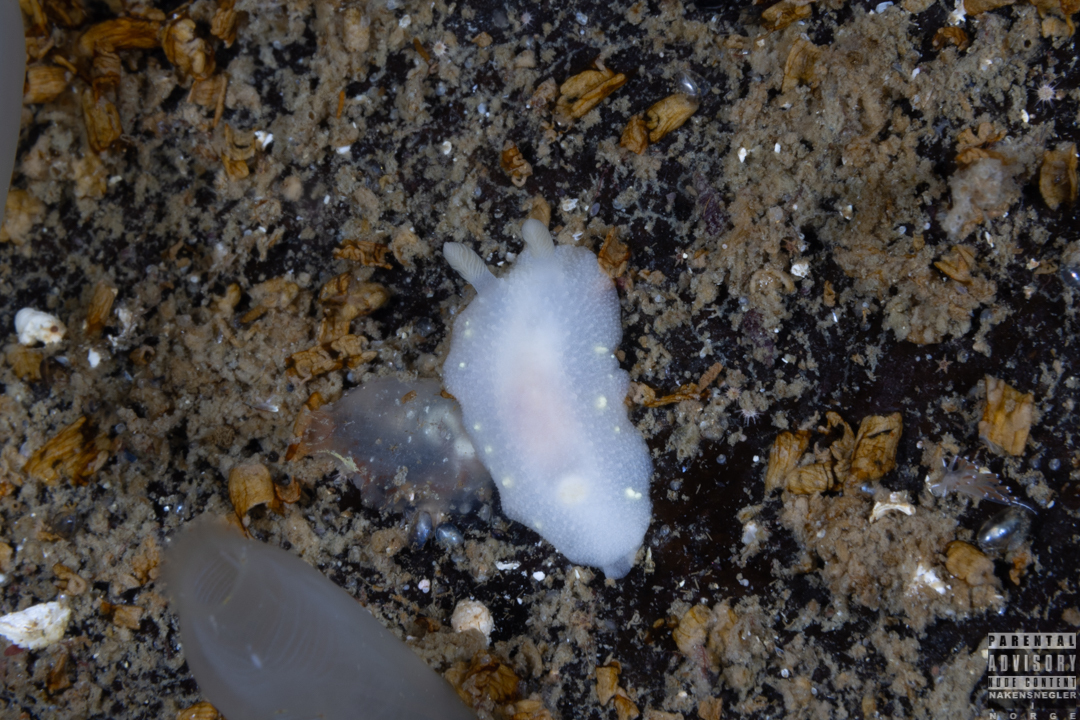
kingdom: Animalia
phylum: Mollusca
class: Gastropoda
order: Nudibranchia
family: Cadlinidae
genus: Cadlina
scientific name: Cadlina laevis
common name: White atlantic cadlina
